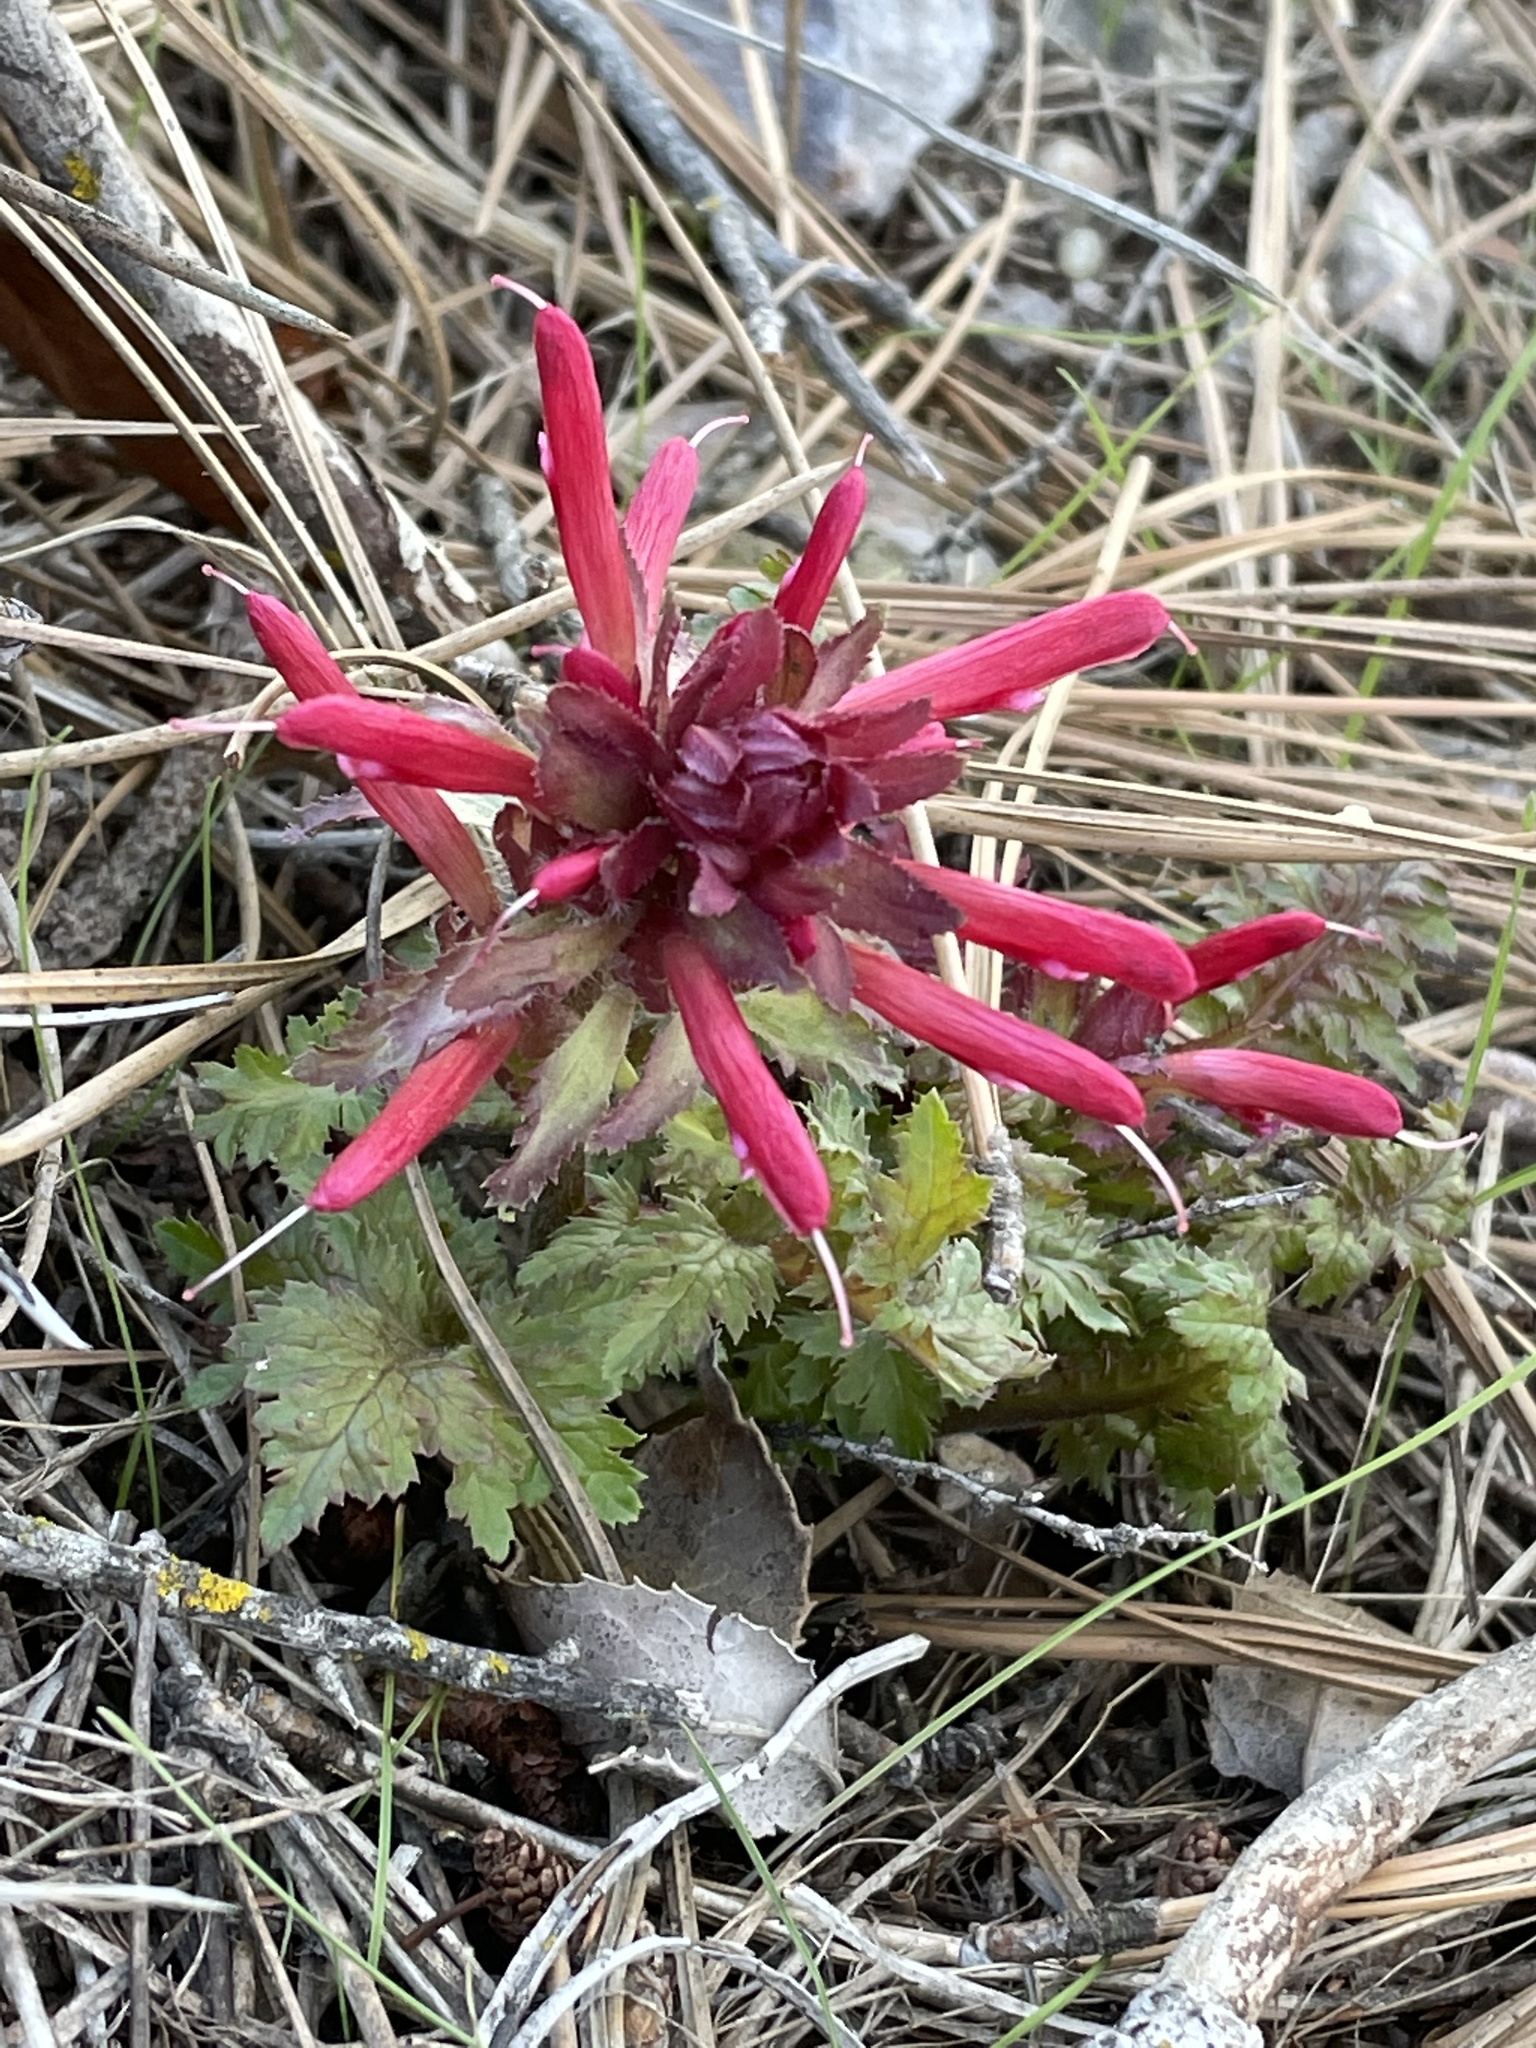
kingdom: Plantae
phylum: Tracheophyta
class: Magnoliopsida
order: Lamiales
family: Orobanchaceae
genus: Pedicularis
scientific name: Pedicularis densiflora
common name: Indian warrior
